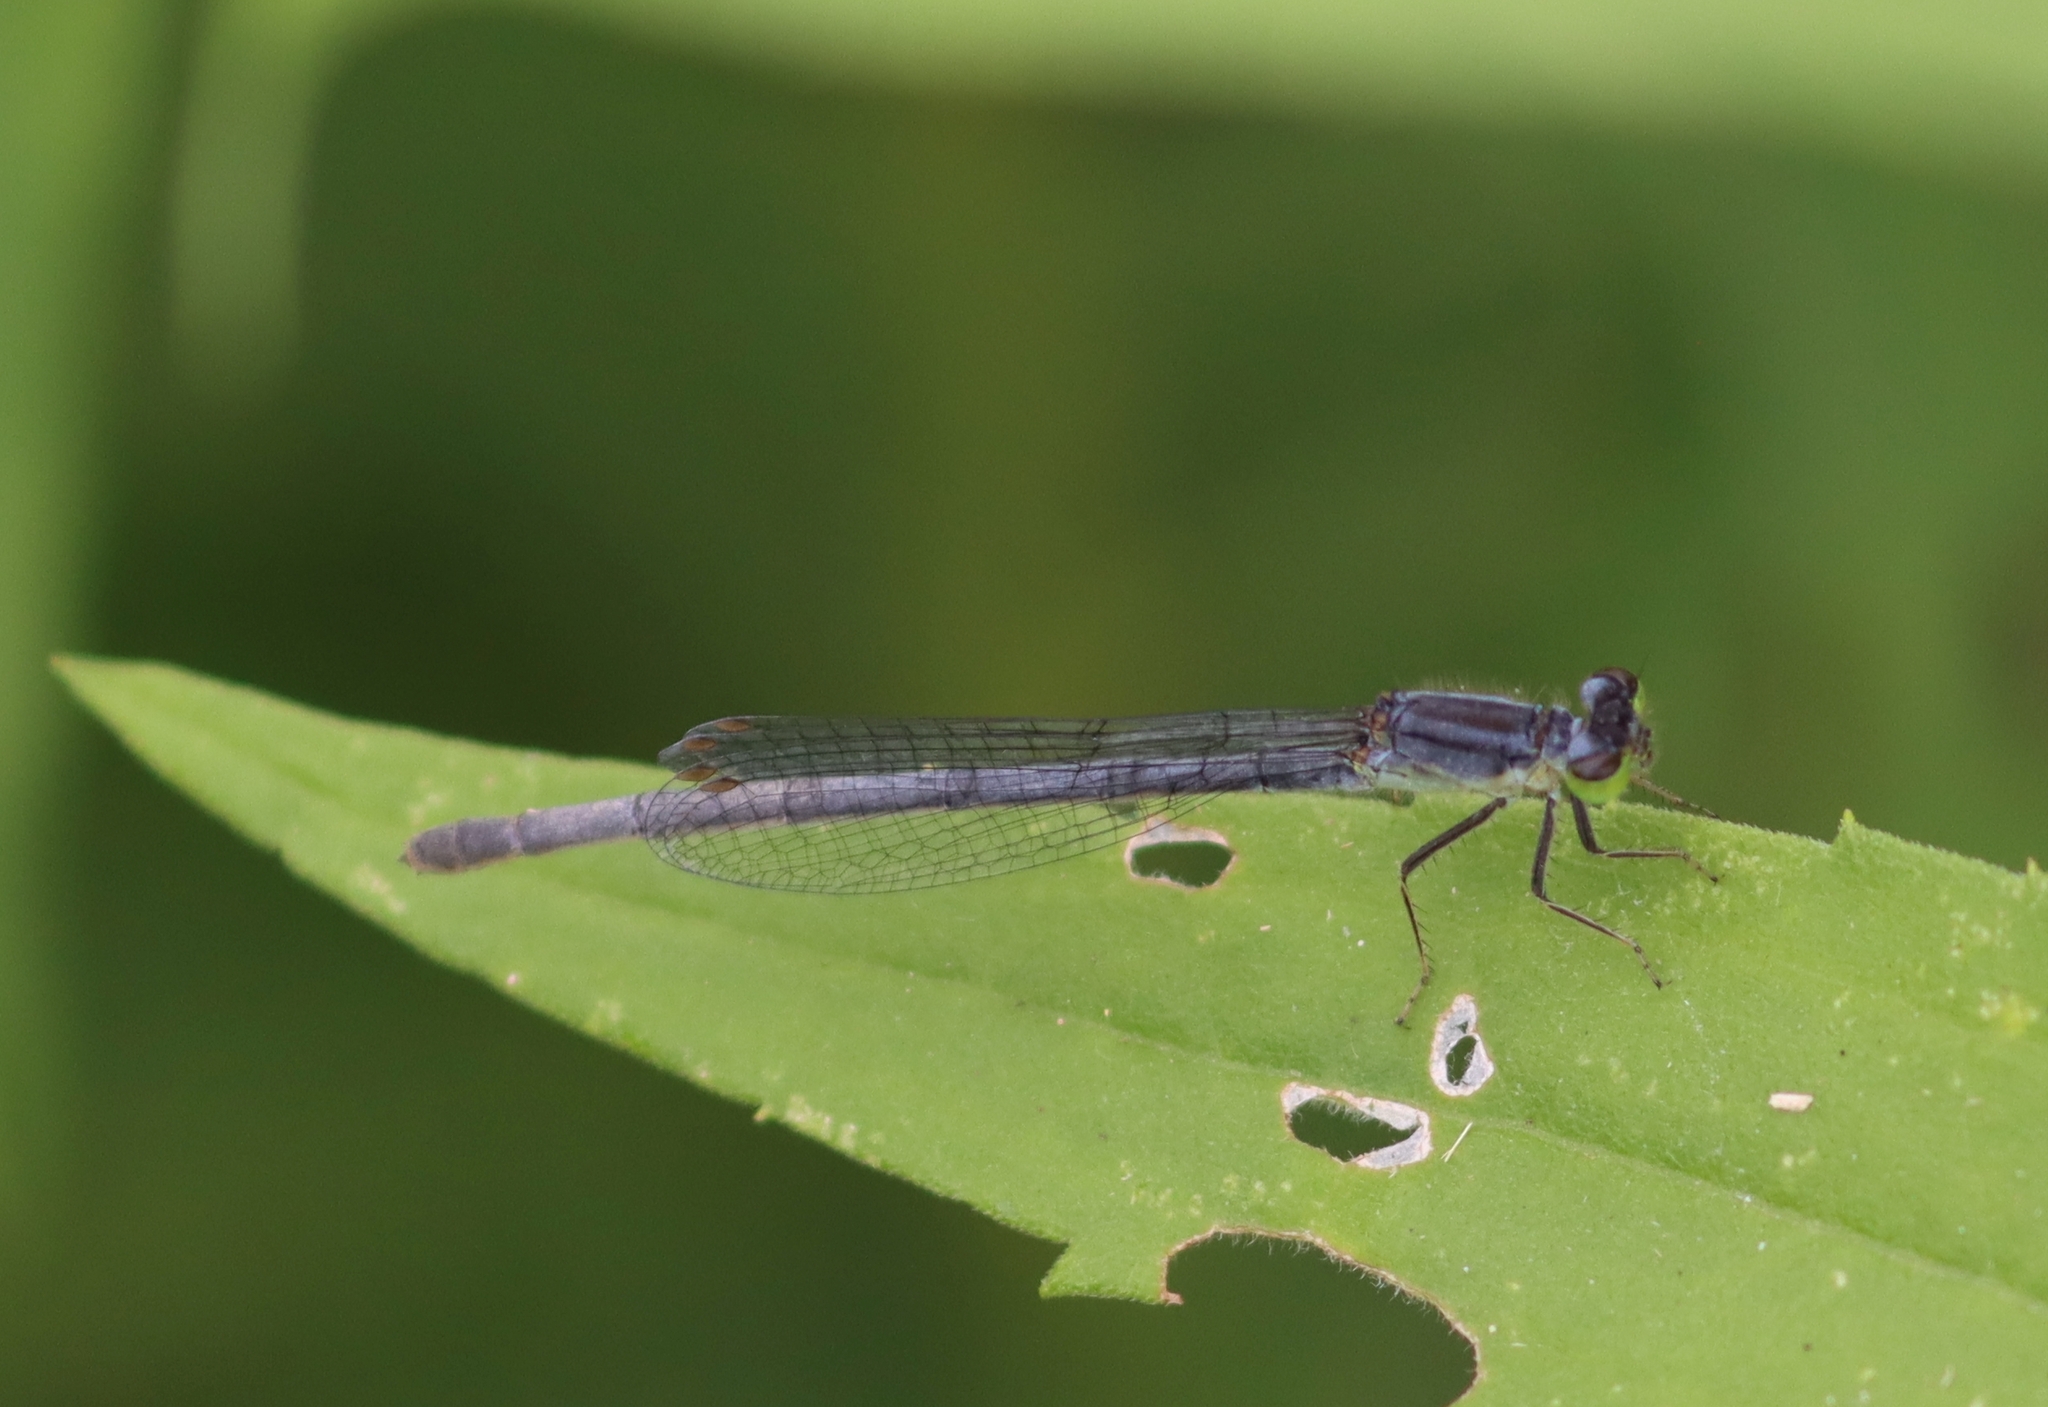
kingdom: Animalia
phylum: Arthropoda
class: Insecta
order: Odonata
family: Coenagrionidae
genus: Ischnura
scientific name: Ischnura verticalis
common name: Eastern forktail
